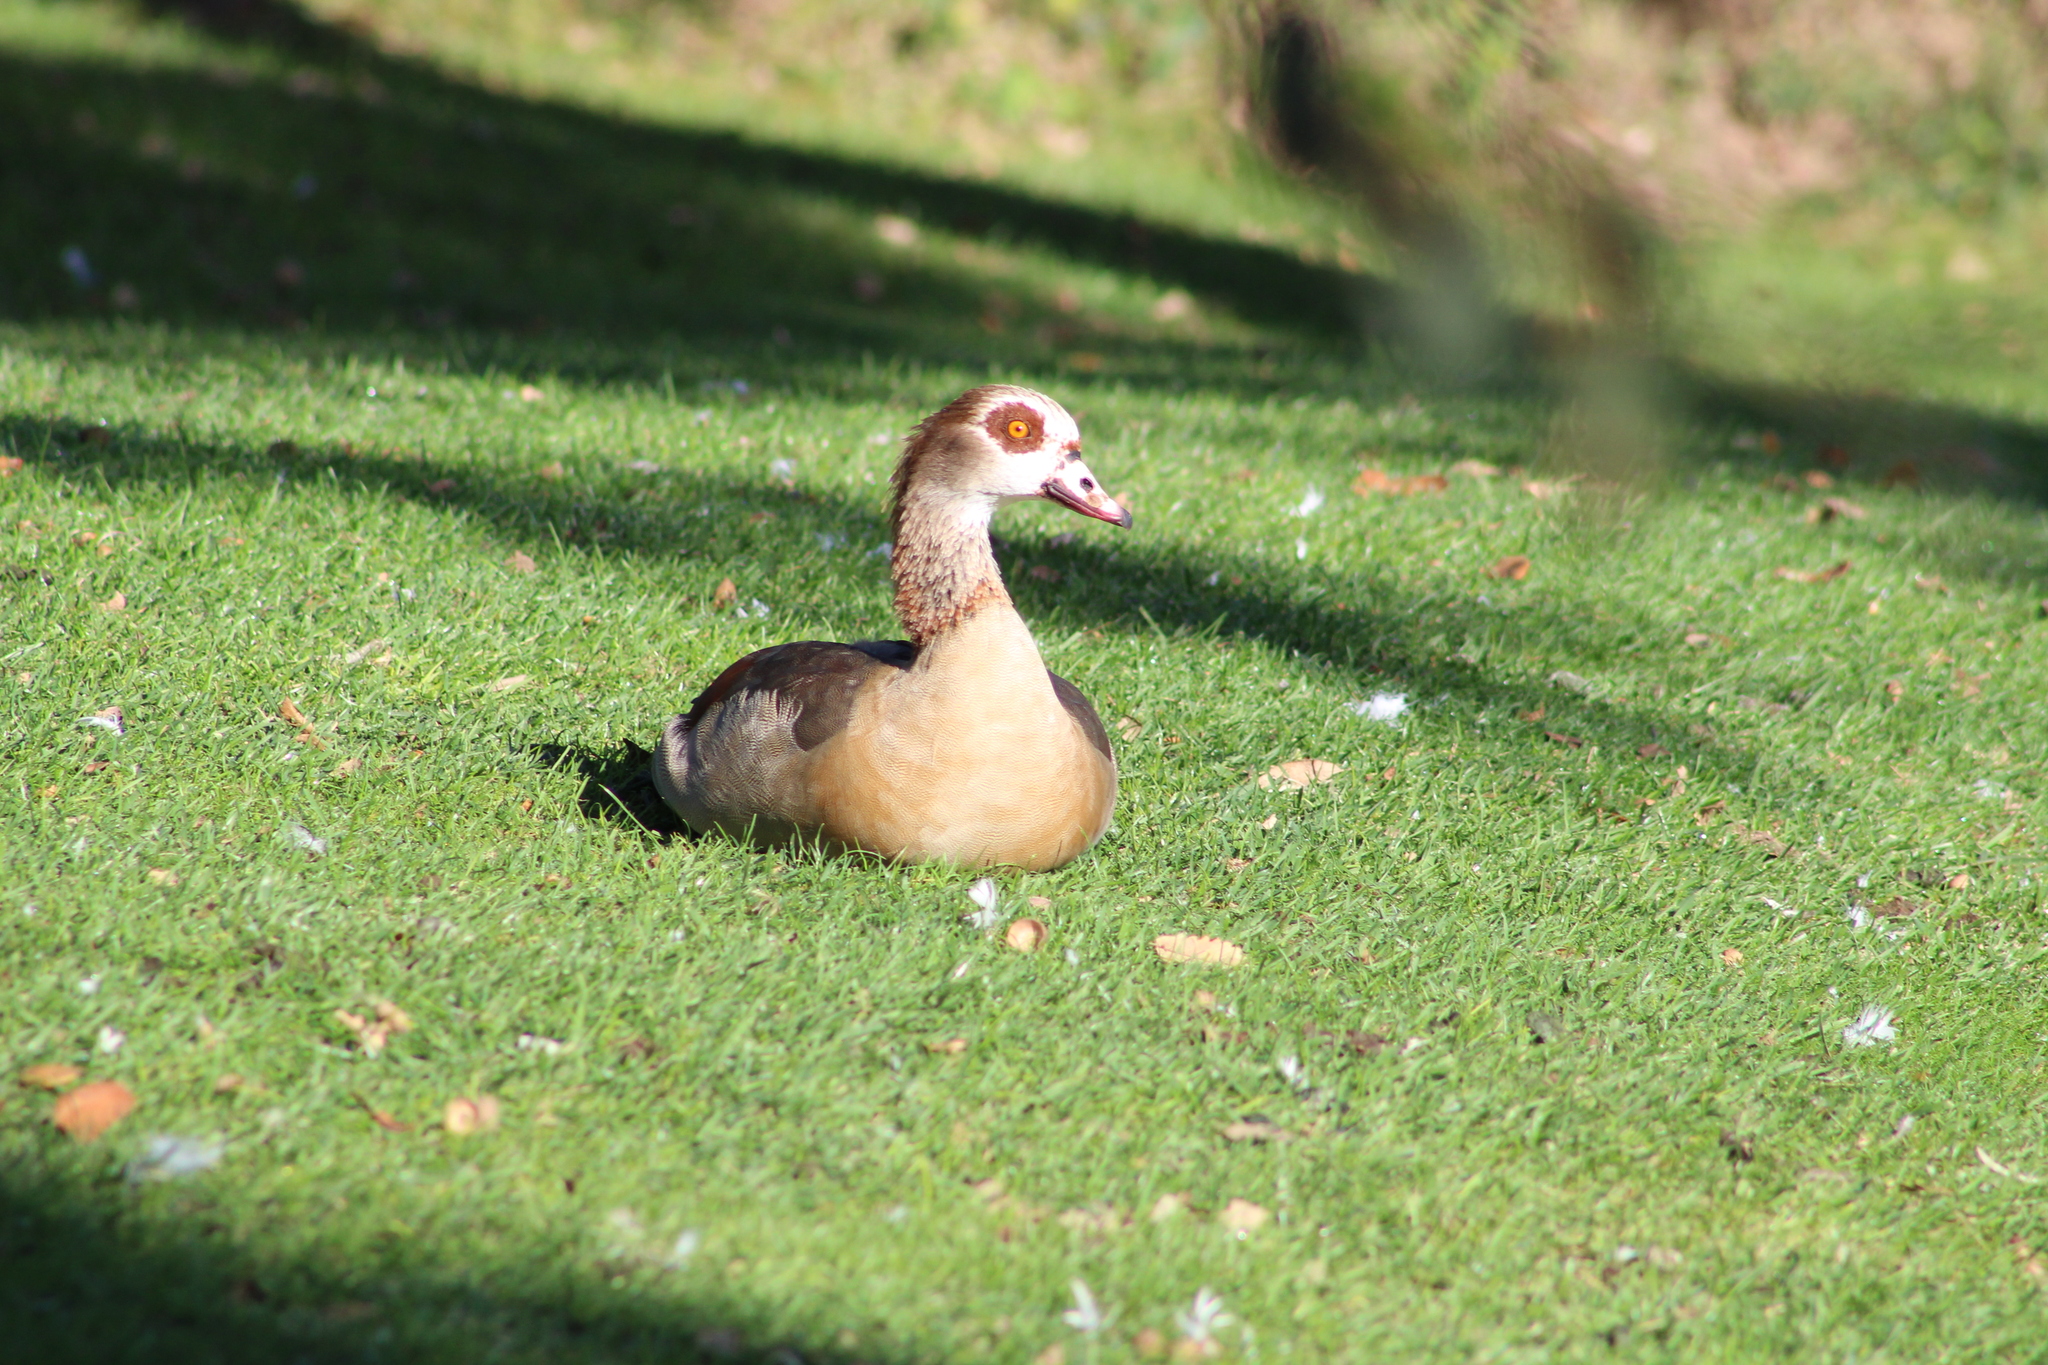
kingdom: Animalia
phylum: Chordata
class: Aves
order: Anseriformes
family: Anatidae
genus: Alopochen
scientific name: Alopochen aegyptiaca
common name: Egyptian goose
